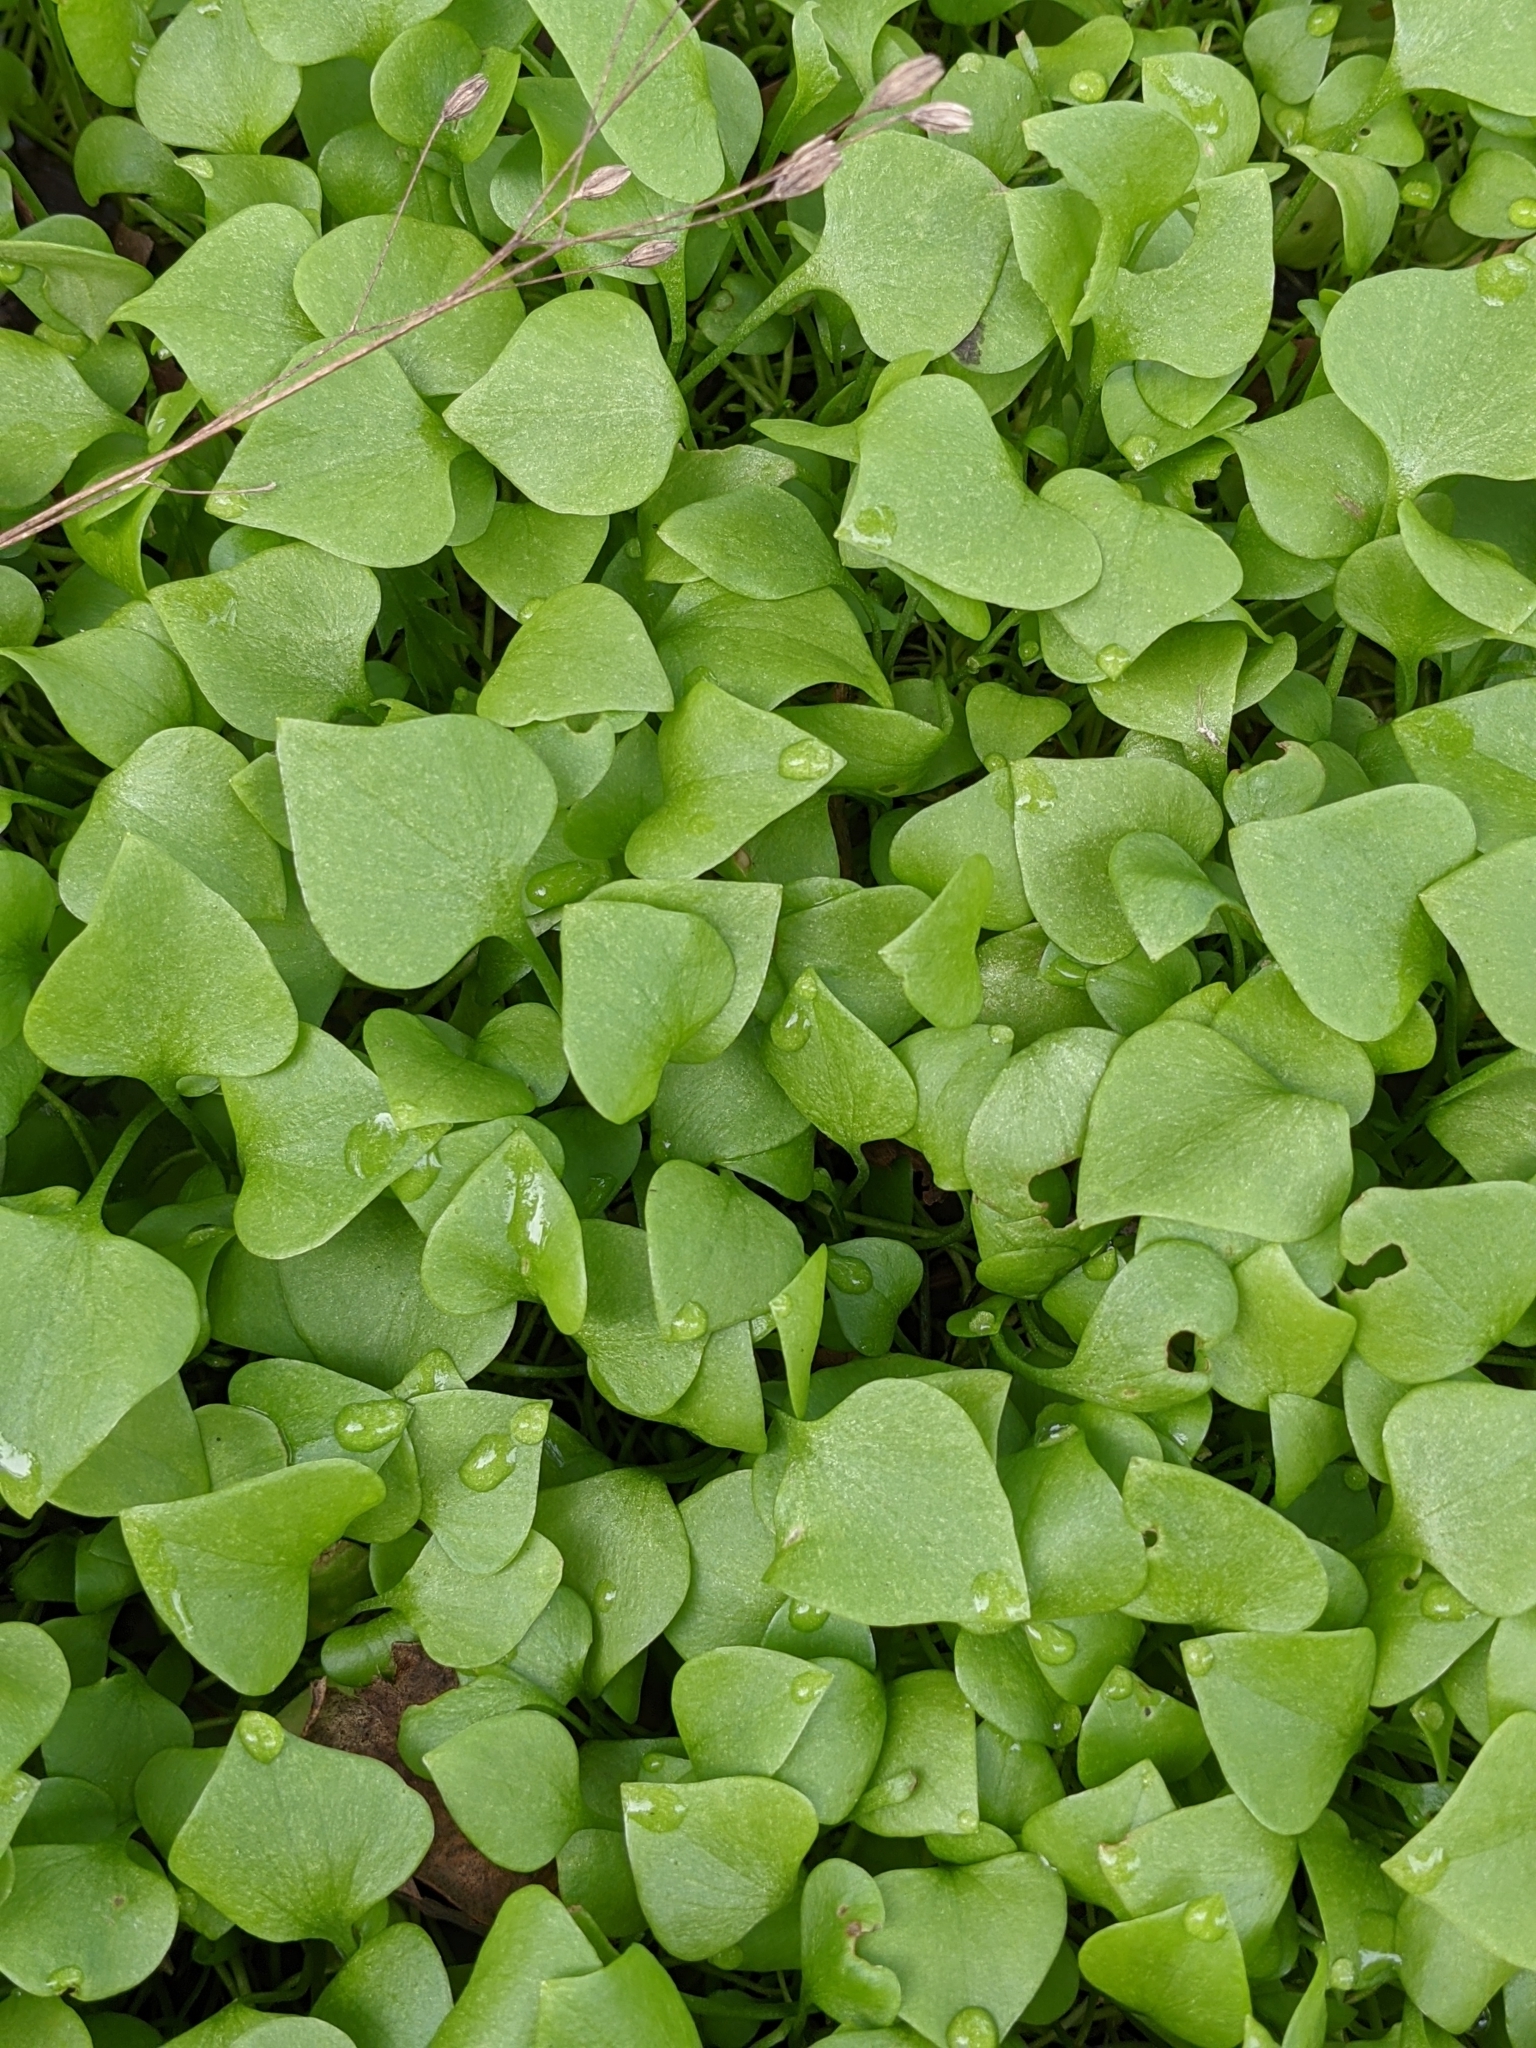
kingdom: Plantae
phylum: Tracheophyta
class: Magnoliopsida
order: Caryophyllales
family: Montiaceae
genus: Claytonia
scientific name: Claytonia perfoliata
